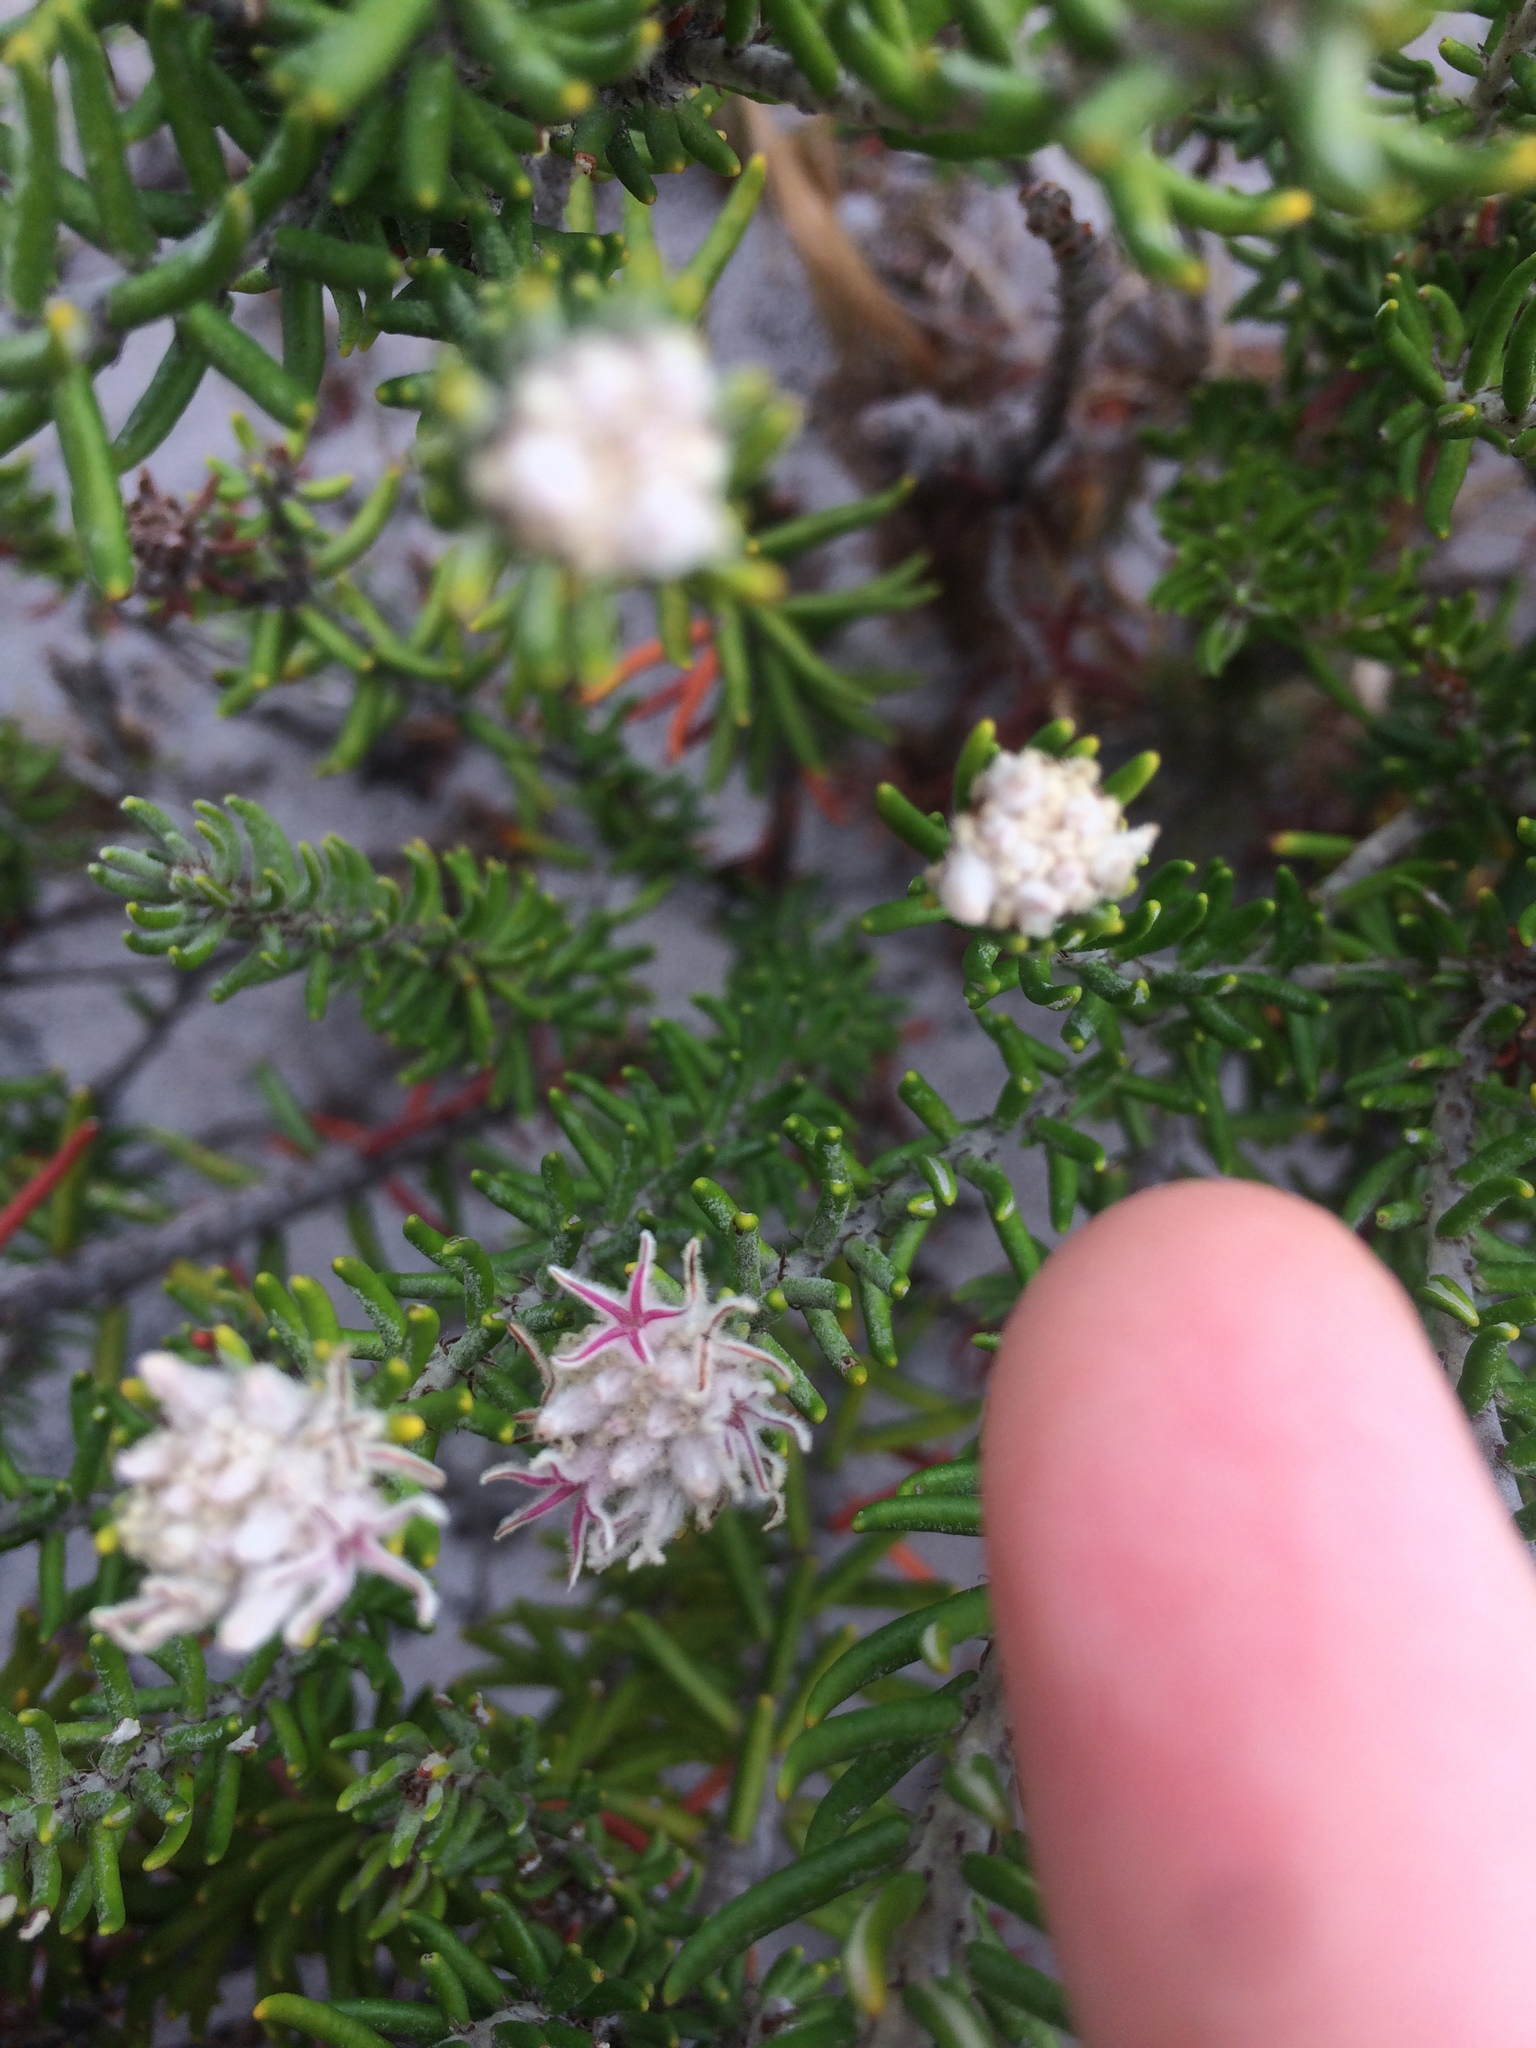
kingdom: Plantae
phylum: Tracheophyta
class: Magnoliopsida
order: Rosales
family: Rhamnaceae
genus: Trichocephalus
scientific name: Trichocephalus stipularis
